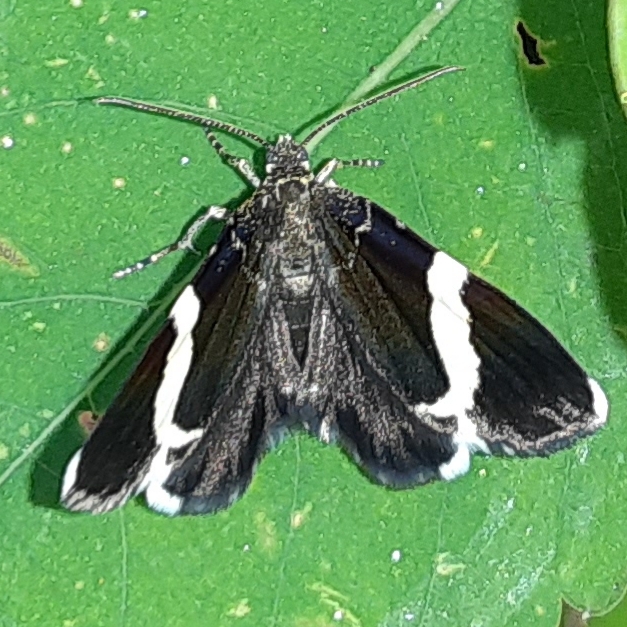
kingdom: Animalia
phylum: Arthropoda
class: Insecta
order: Lepidoptera
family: Geometridae
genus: Trichodezia
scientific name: Trichodezia albovittata
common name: White striped black
